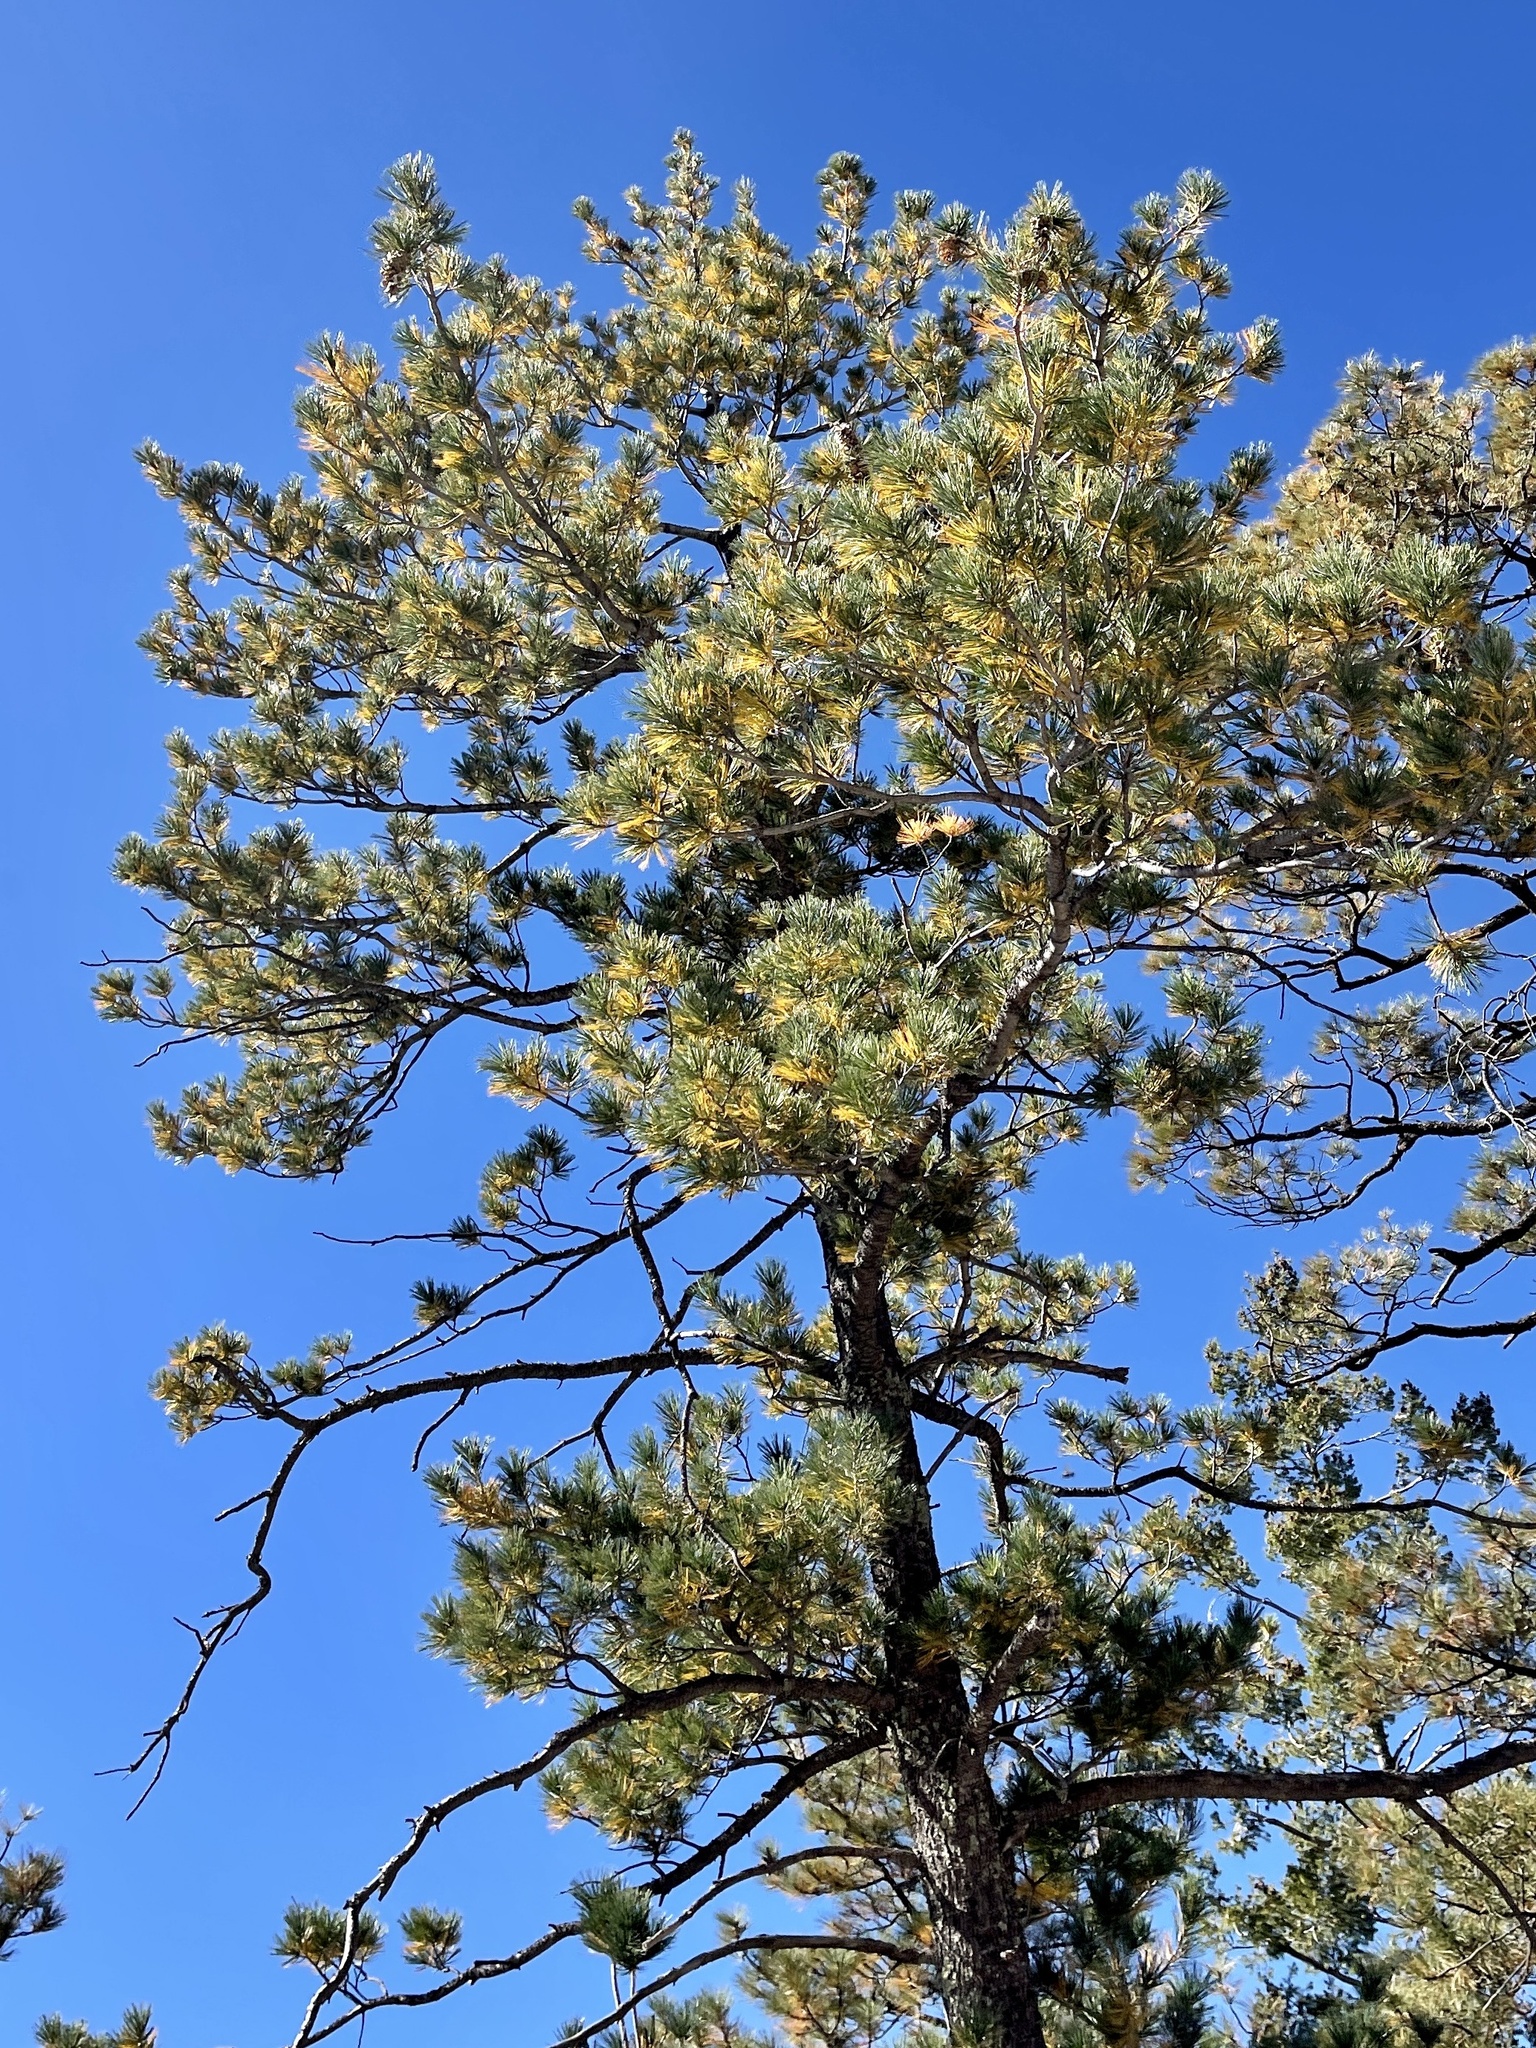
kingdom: Plantae
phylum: Tracheophyta
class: Pinopsida
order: Pinales
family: Pinaceae
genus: Pinus
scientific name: Pinus strobiformis
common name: Southwestern white pine
